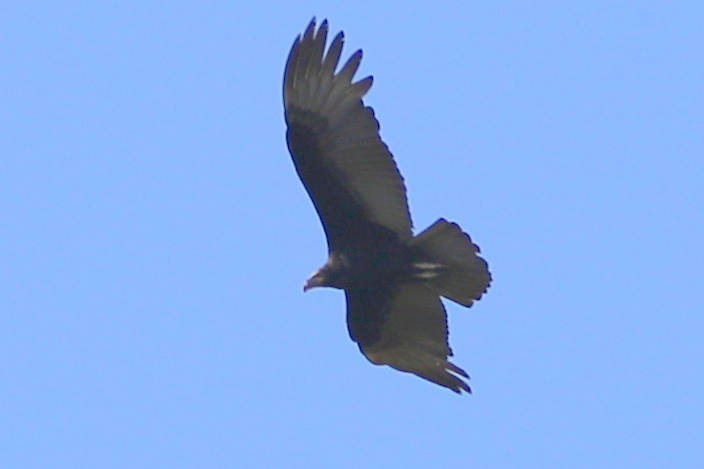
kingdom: Animalia
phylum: Chordata
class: Aves
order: Accipitriformes
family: Cathartidae
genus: Cathartes
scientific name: Cathartes burrovianus
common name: Lesser yellow-headed vulture
